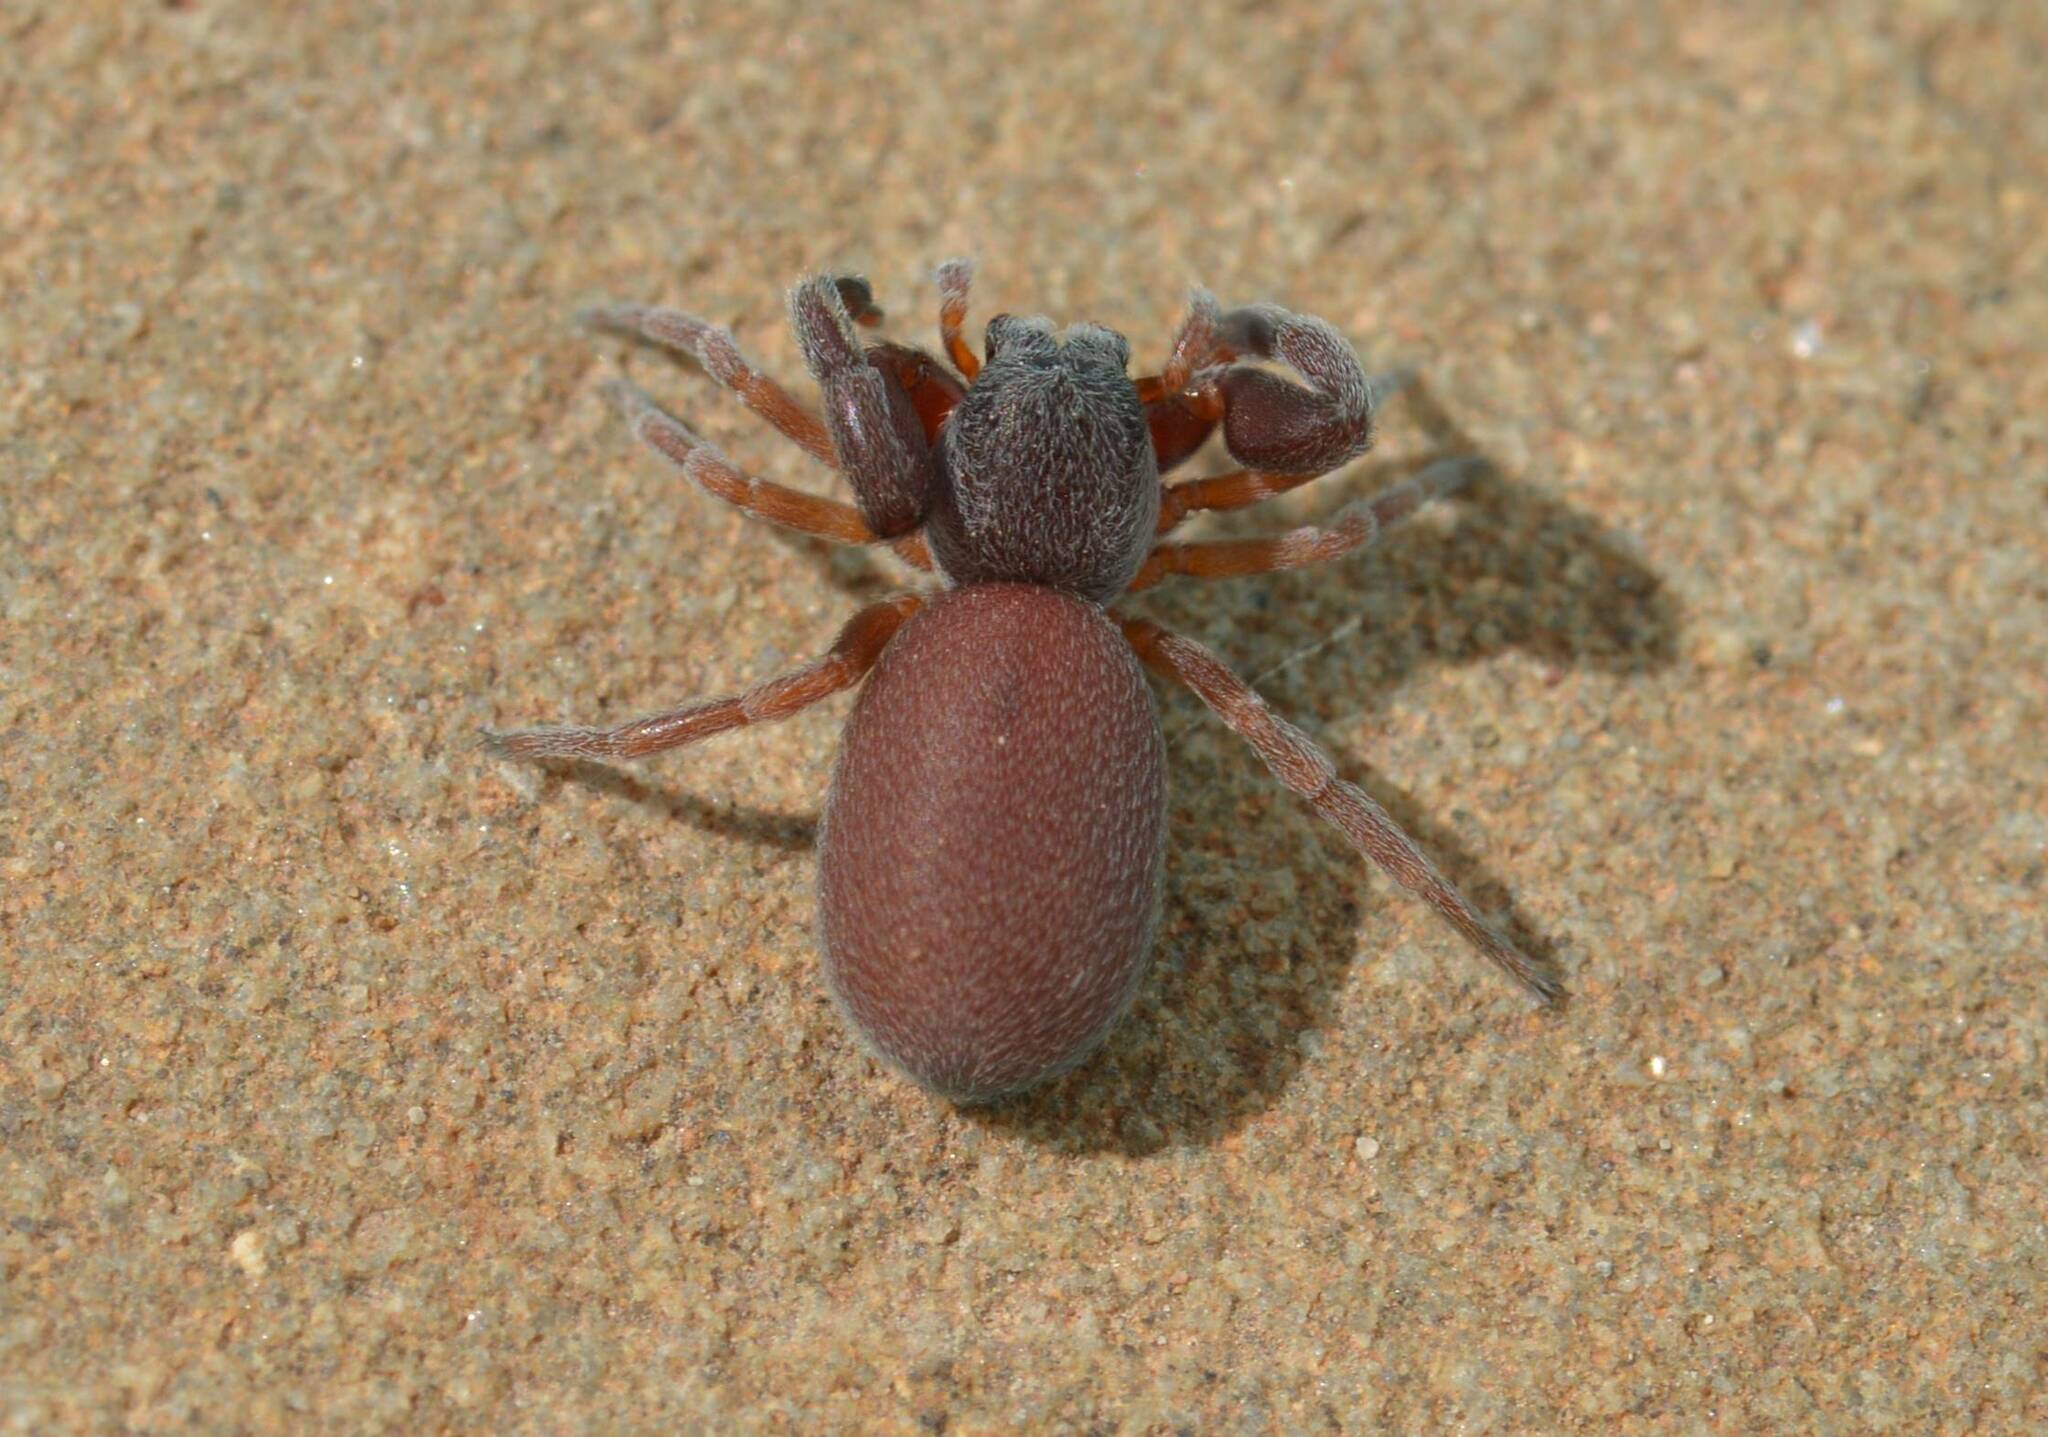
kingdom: Animalia
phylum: Arthropoda
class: Arachnida
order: Araneae
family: Palpimanidae
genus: Palpimanus
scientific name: Palpimanus
